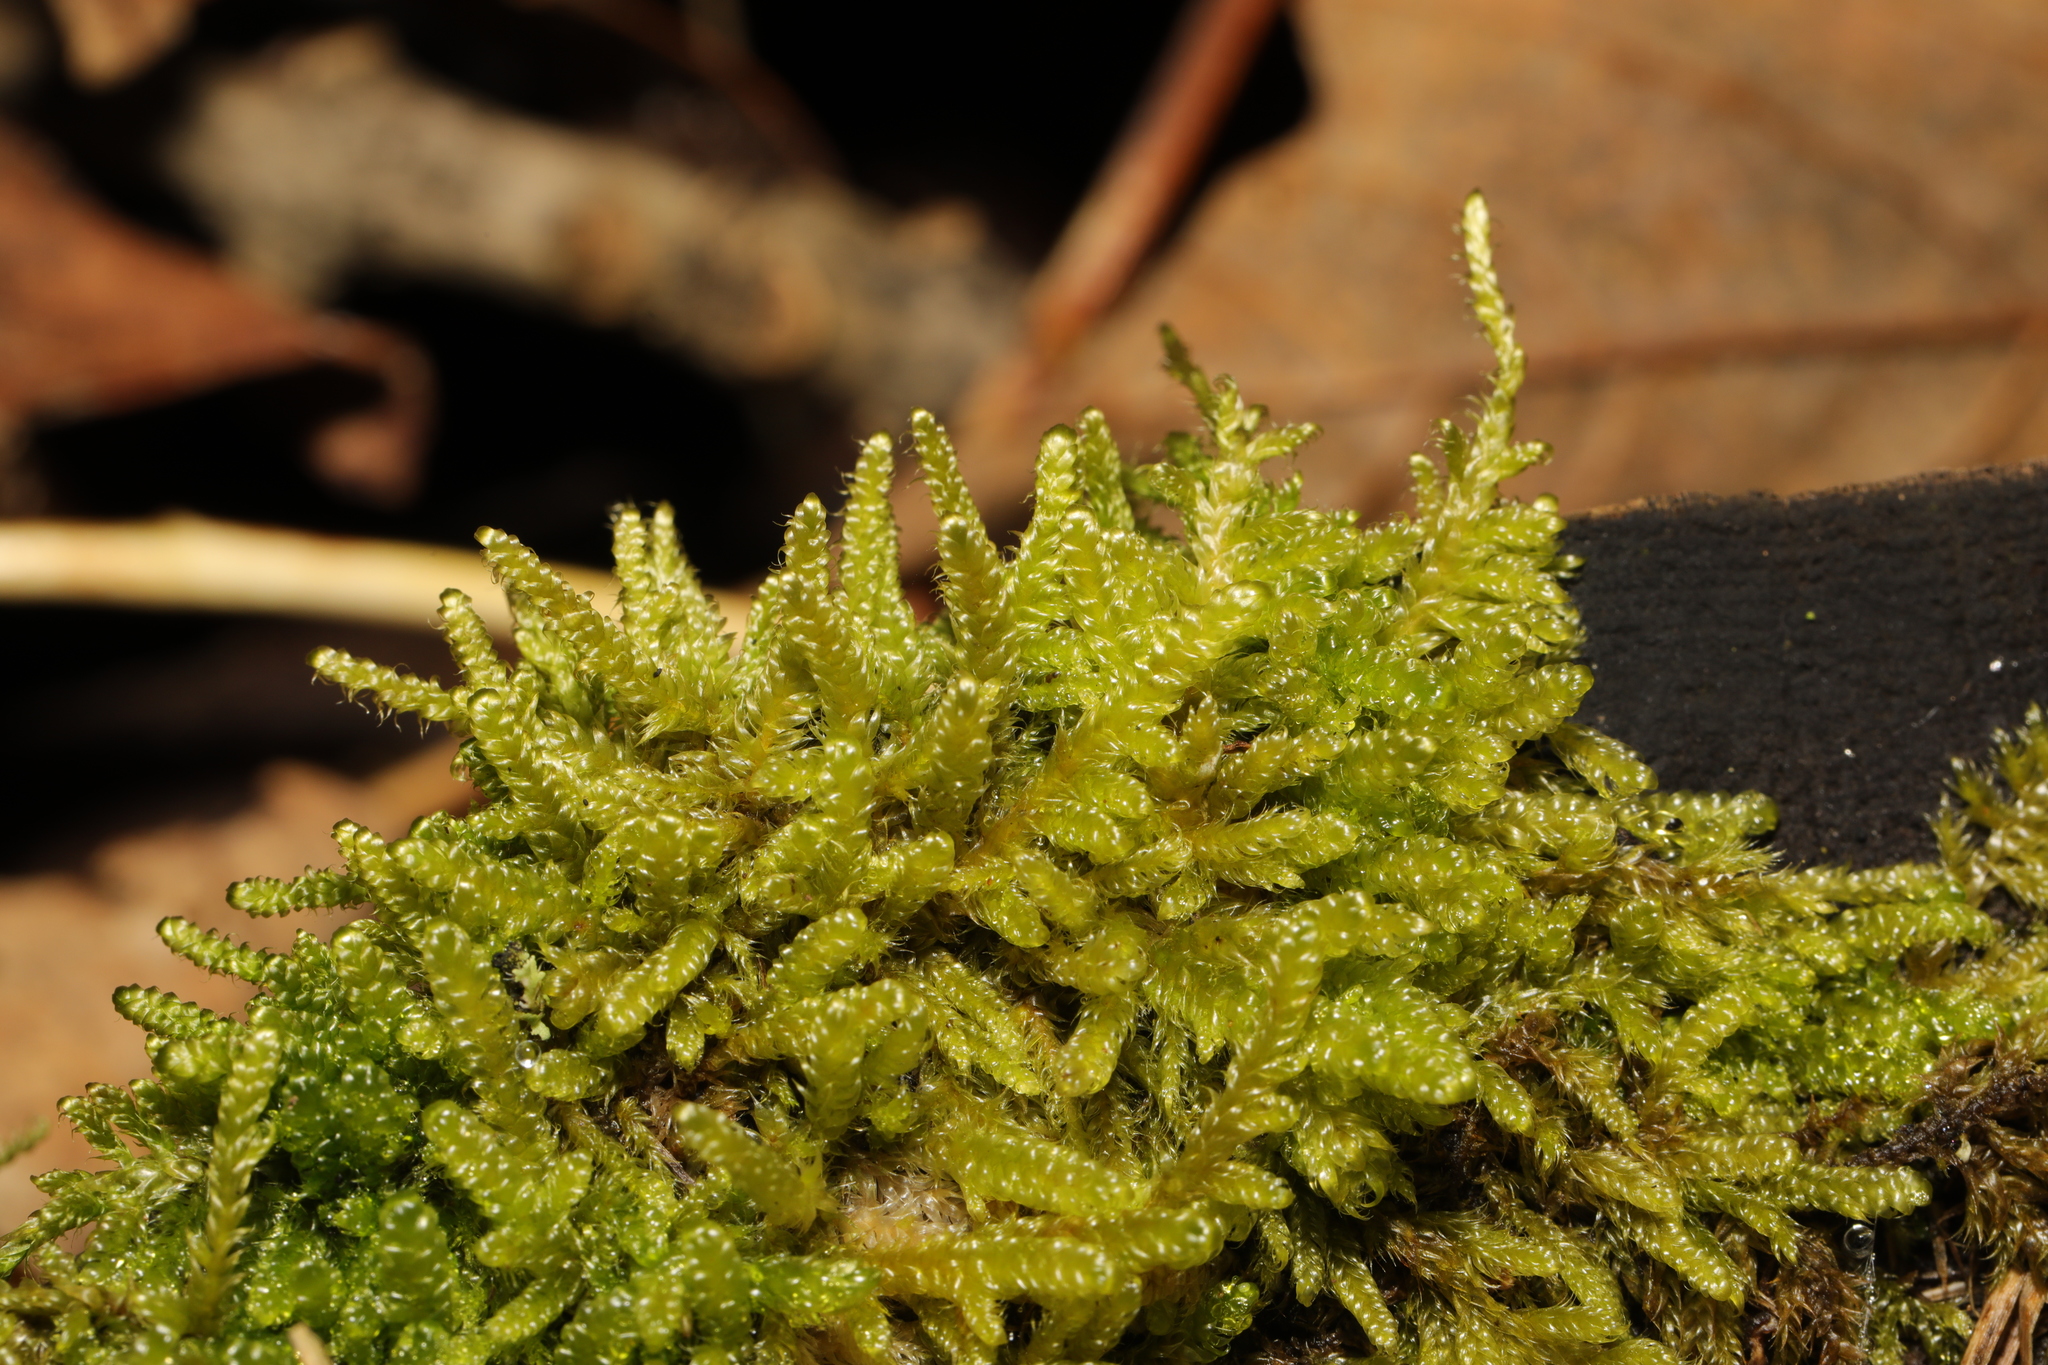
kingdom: Plantae
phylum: Bryophyta
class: Bryopsida
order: Hypnales
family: Hypnaceae
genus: Hypnum
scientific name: Hypnum cupressiforme
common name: Cypress-leaved plait-moss
